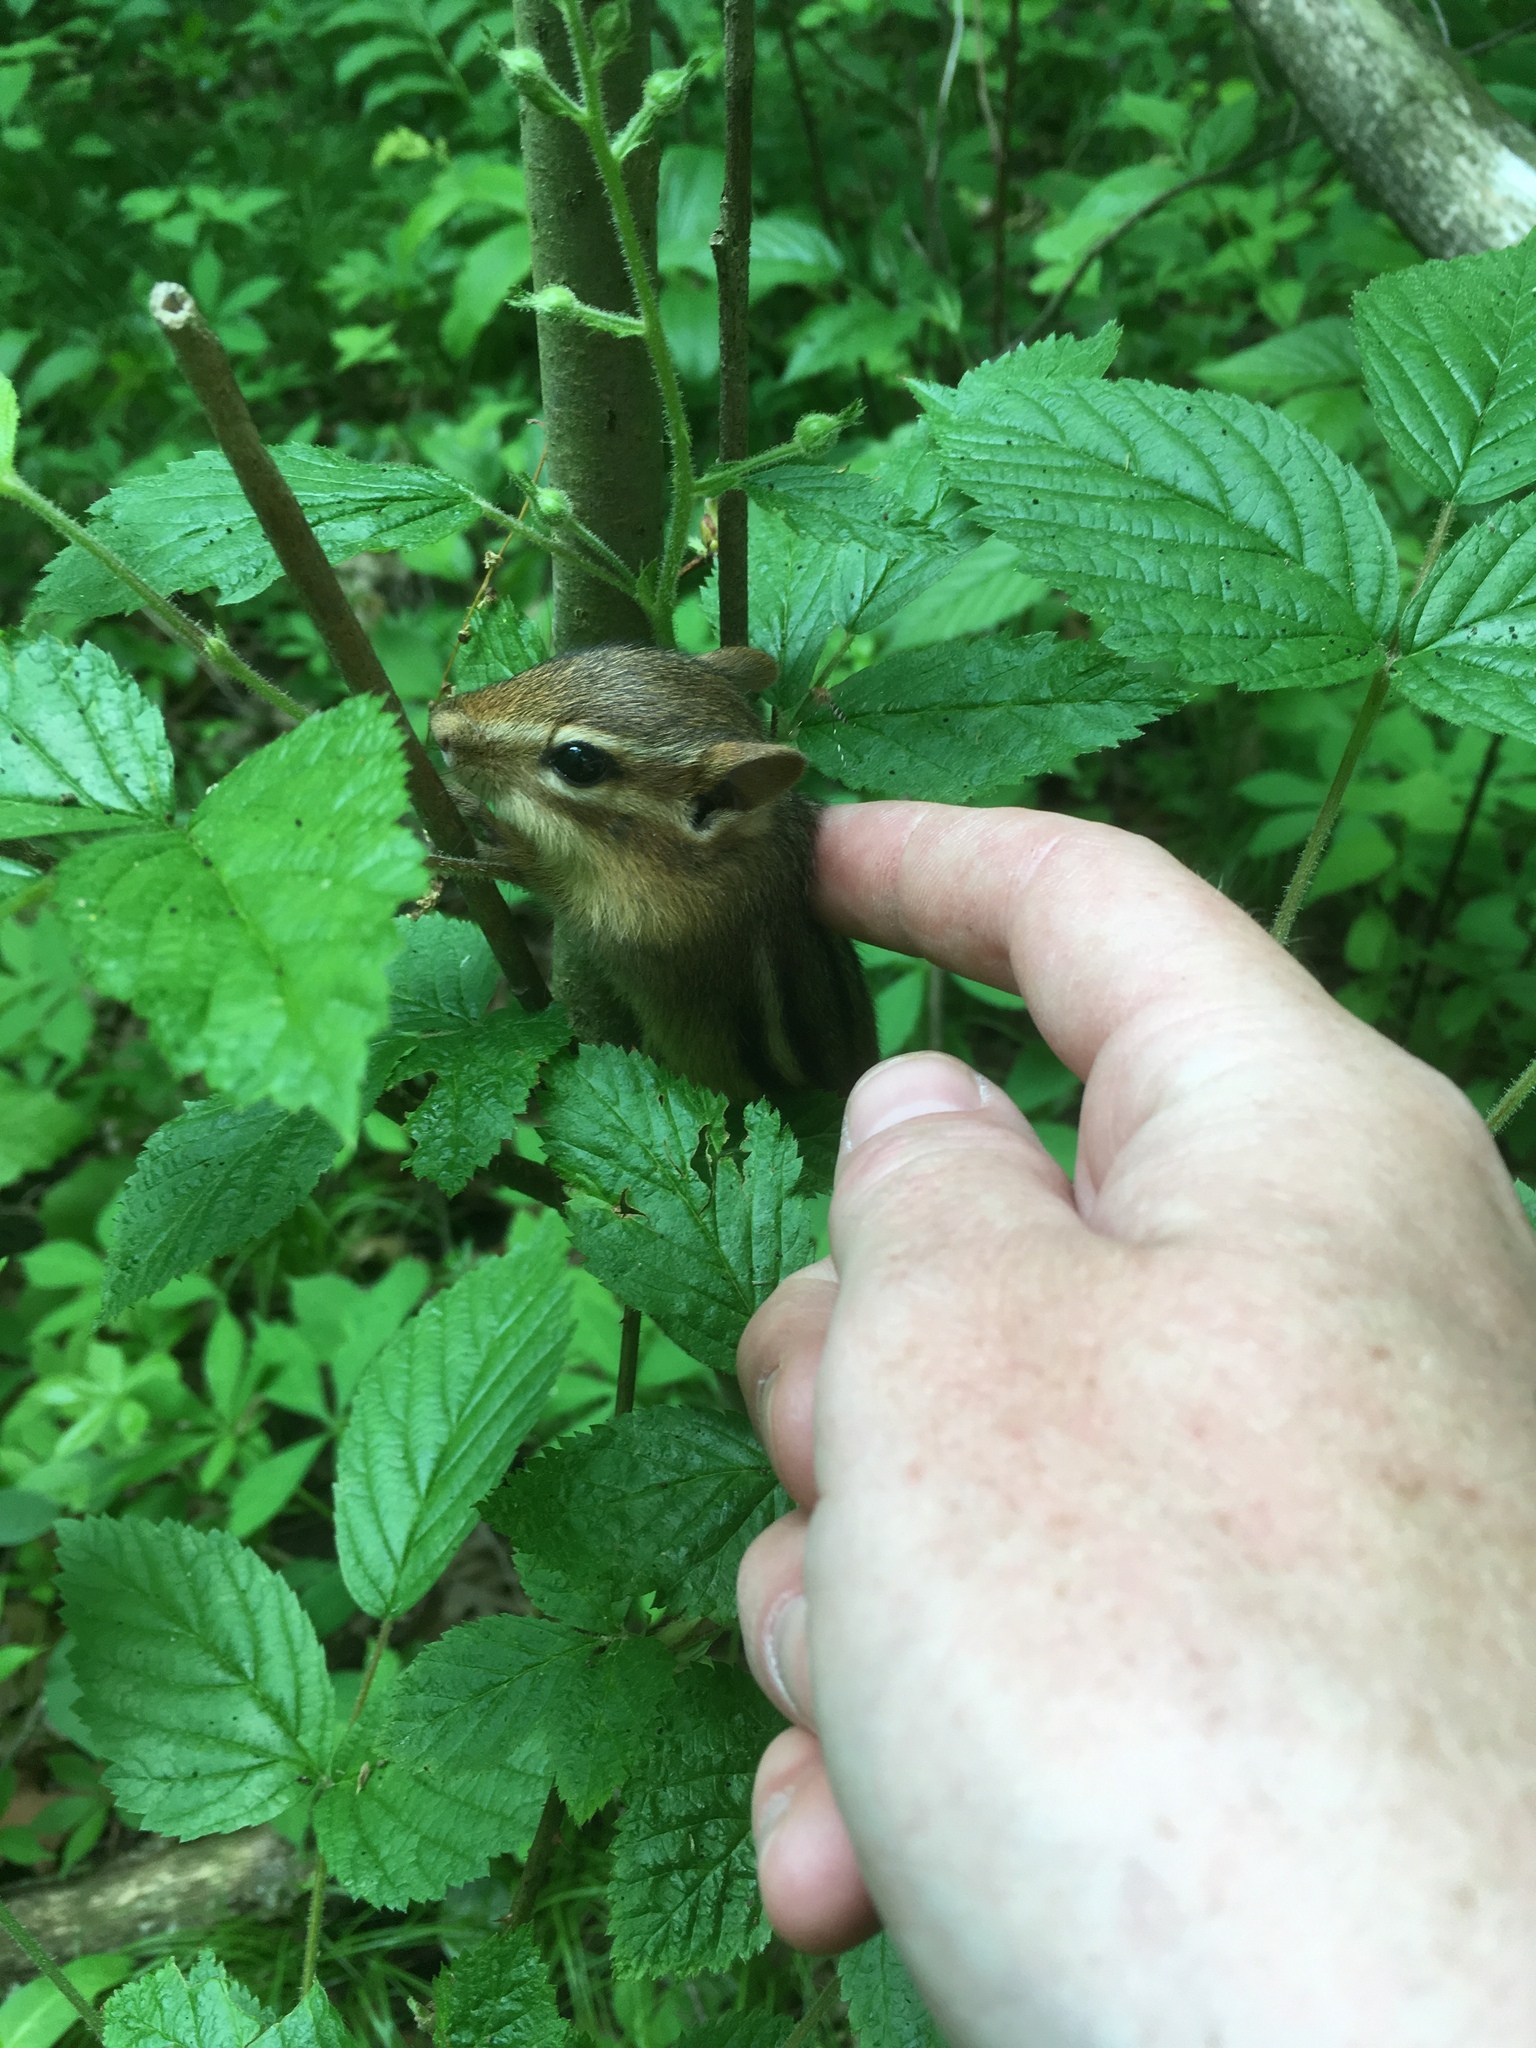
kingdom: Animalia
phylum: Chordata
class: Mammalia
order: Rodentia
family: Sciuridae
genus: Tamias
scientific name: Tamias striatus
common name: Eastern chipmunk
